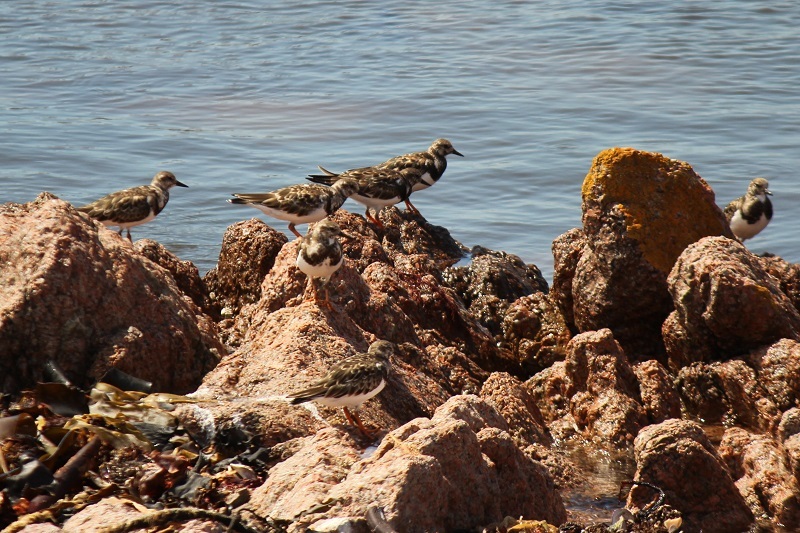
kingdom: Animalia
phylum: Chordata
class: Aves
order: Charadriiformes
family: Scolopacidae
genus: Arenaria
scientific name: Arenaria interpres
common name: Ruddy turnstone
